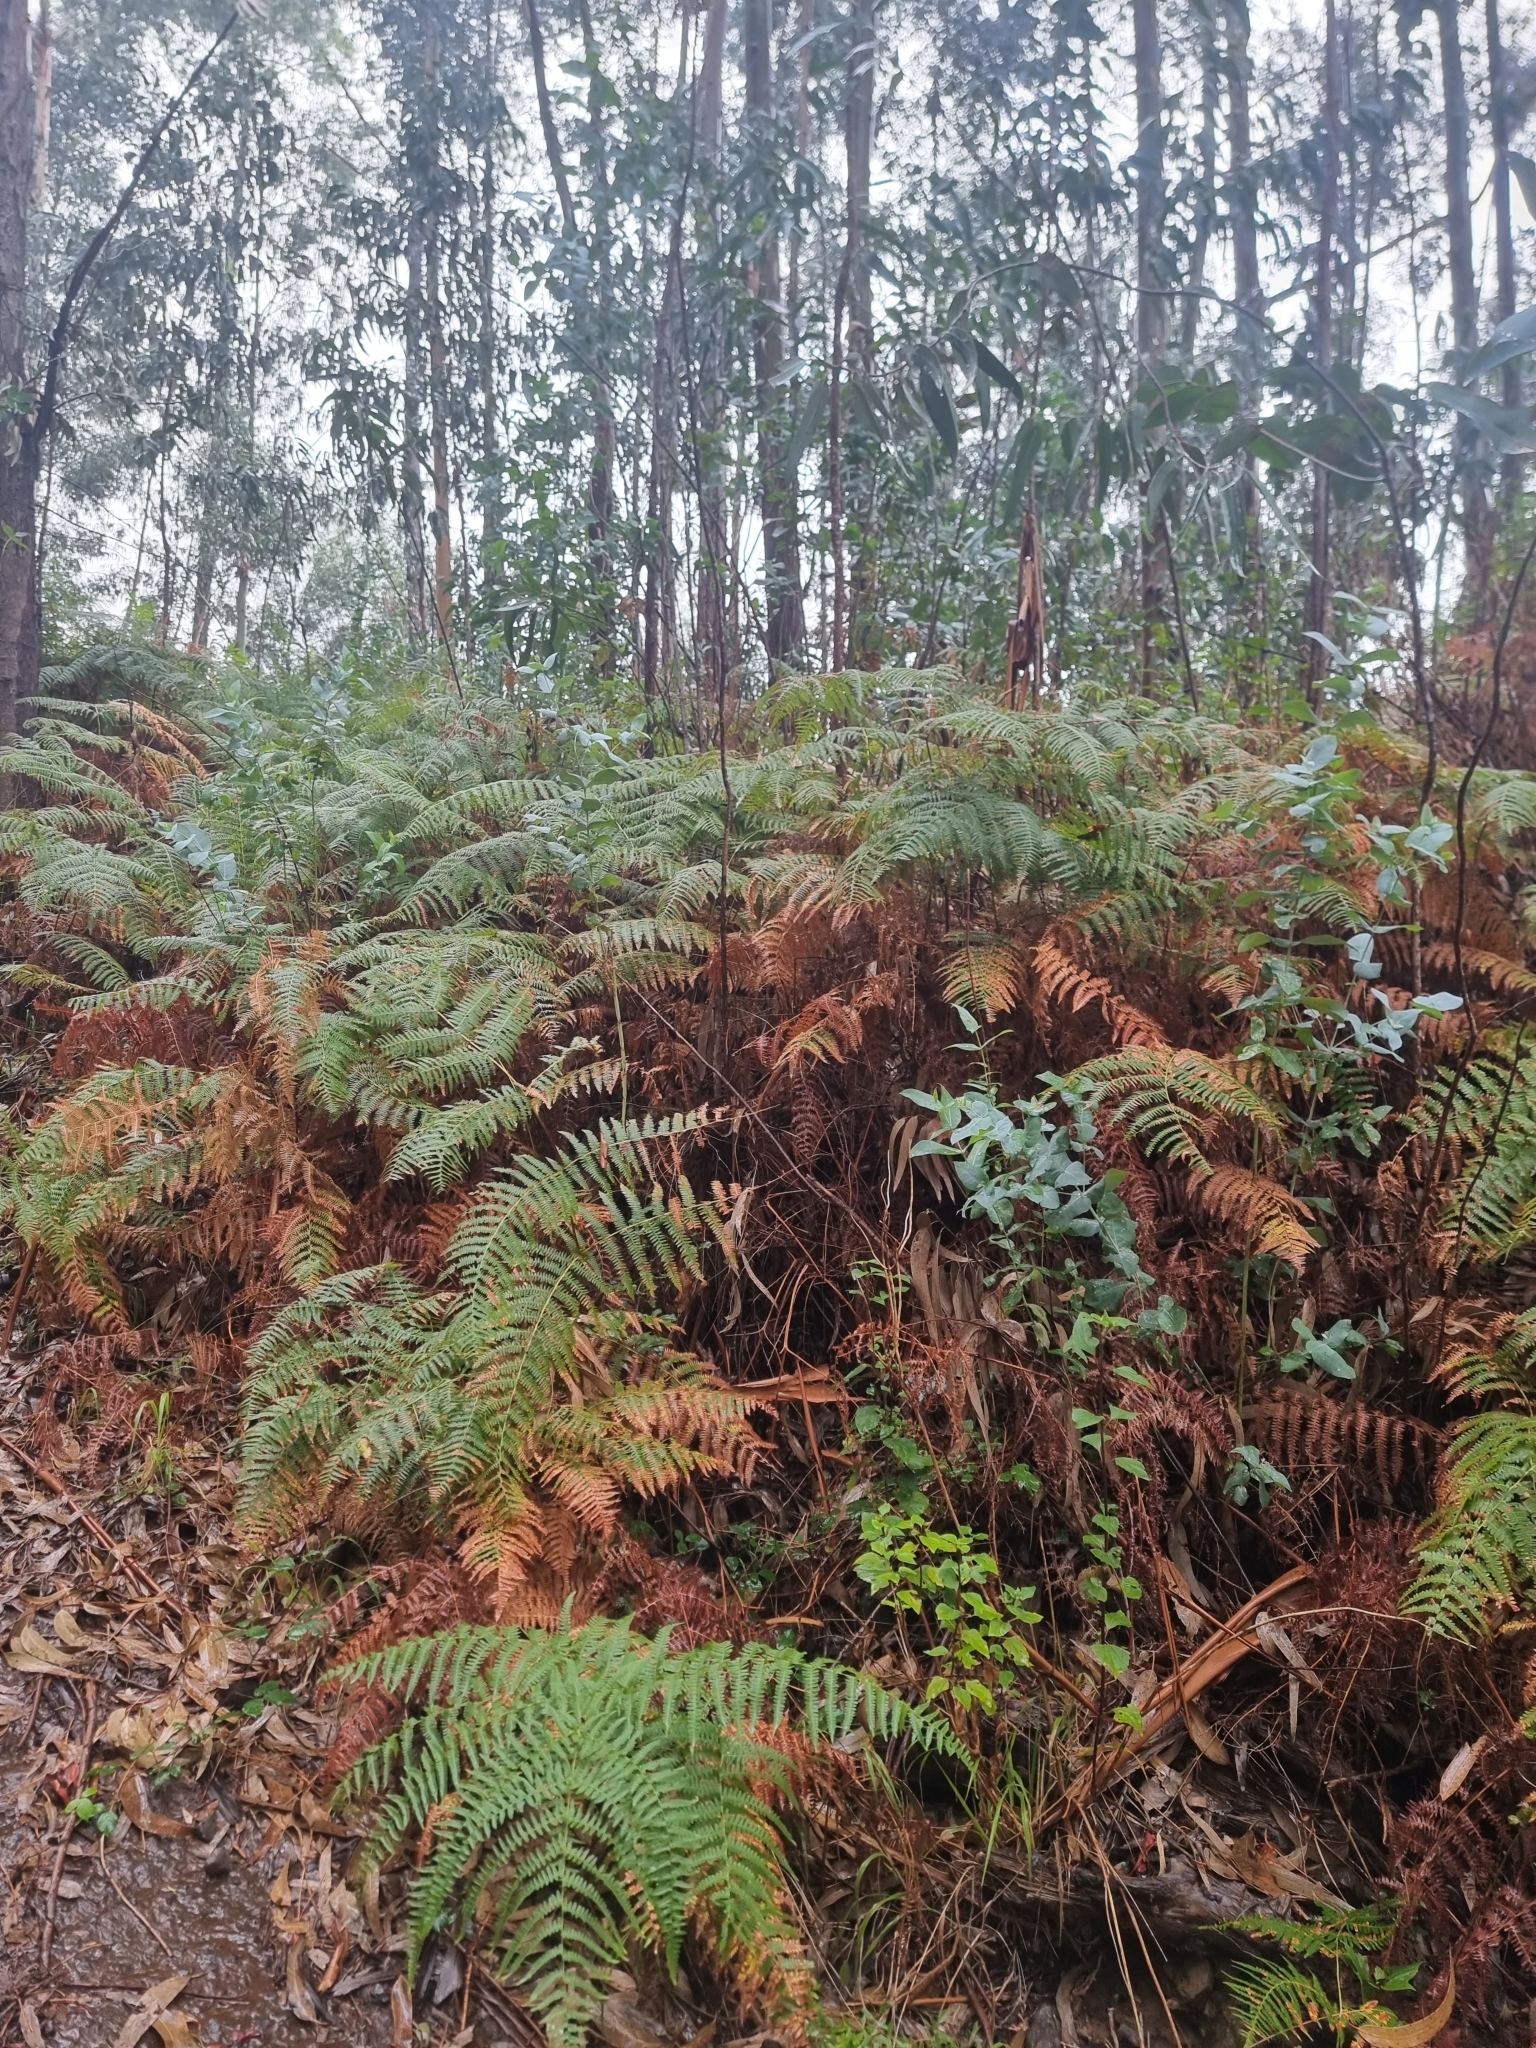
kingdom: Plantae
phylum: Tracheophyta
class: Polypodiopsida
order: Polypodiales
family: Dennstaedtiaceae
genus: Pteridium
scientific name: Pteridium aquilinum
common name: Bracken
